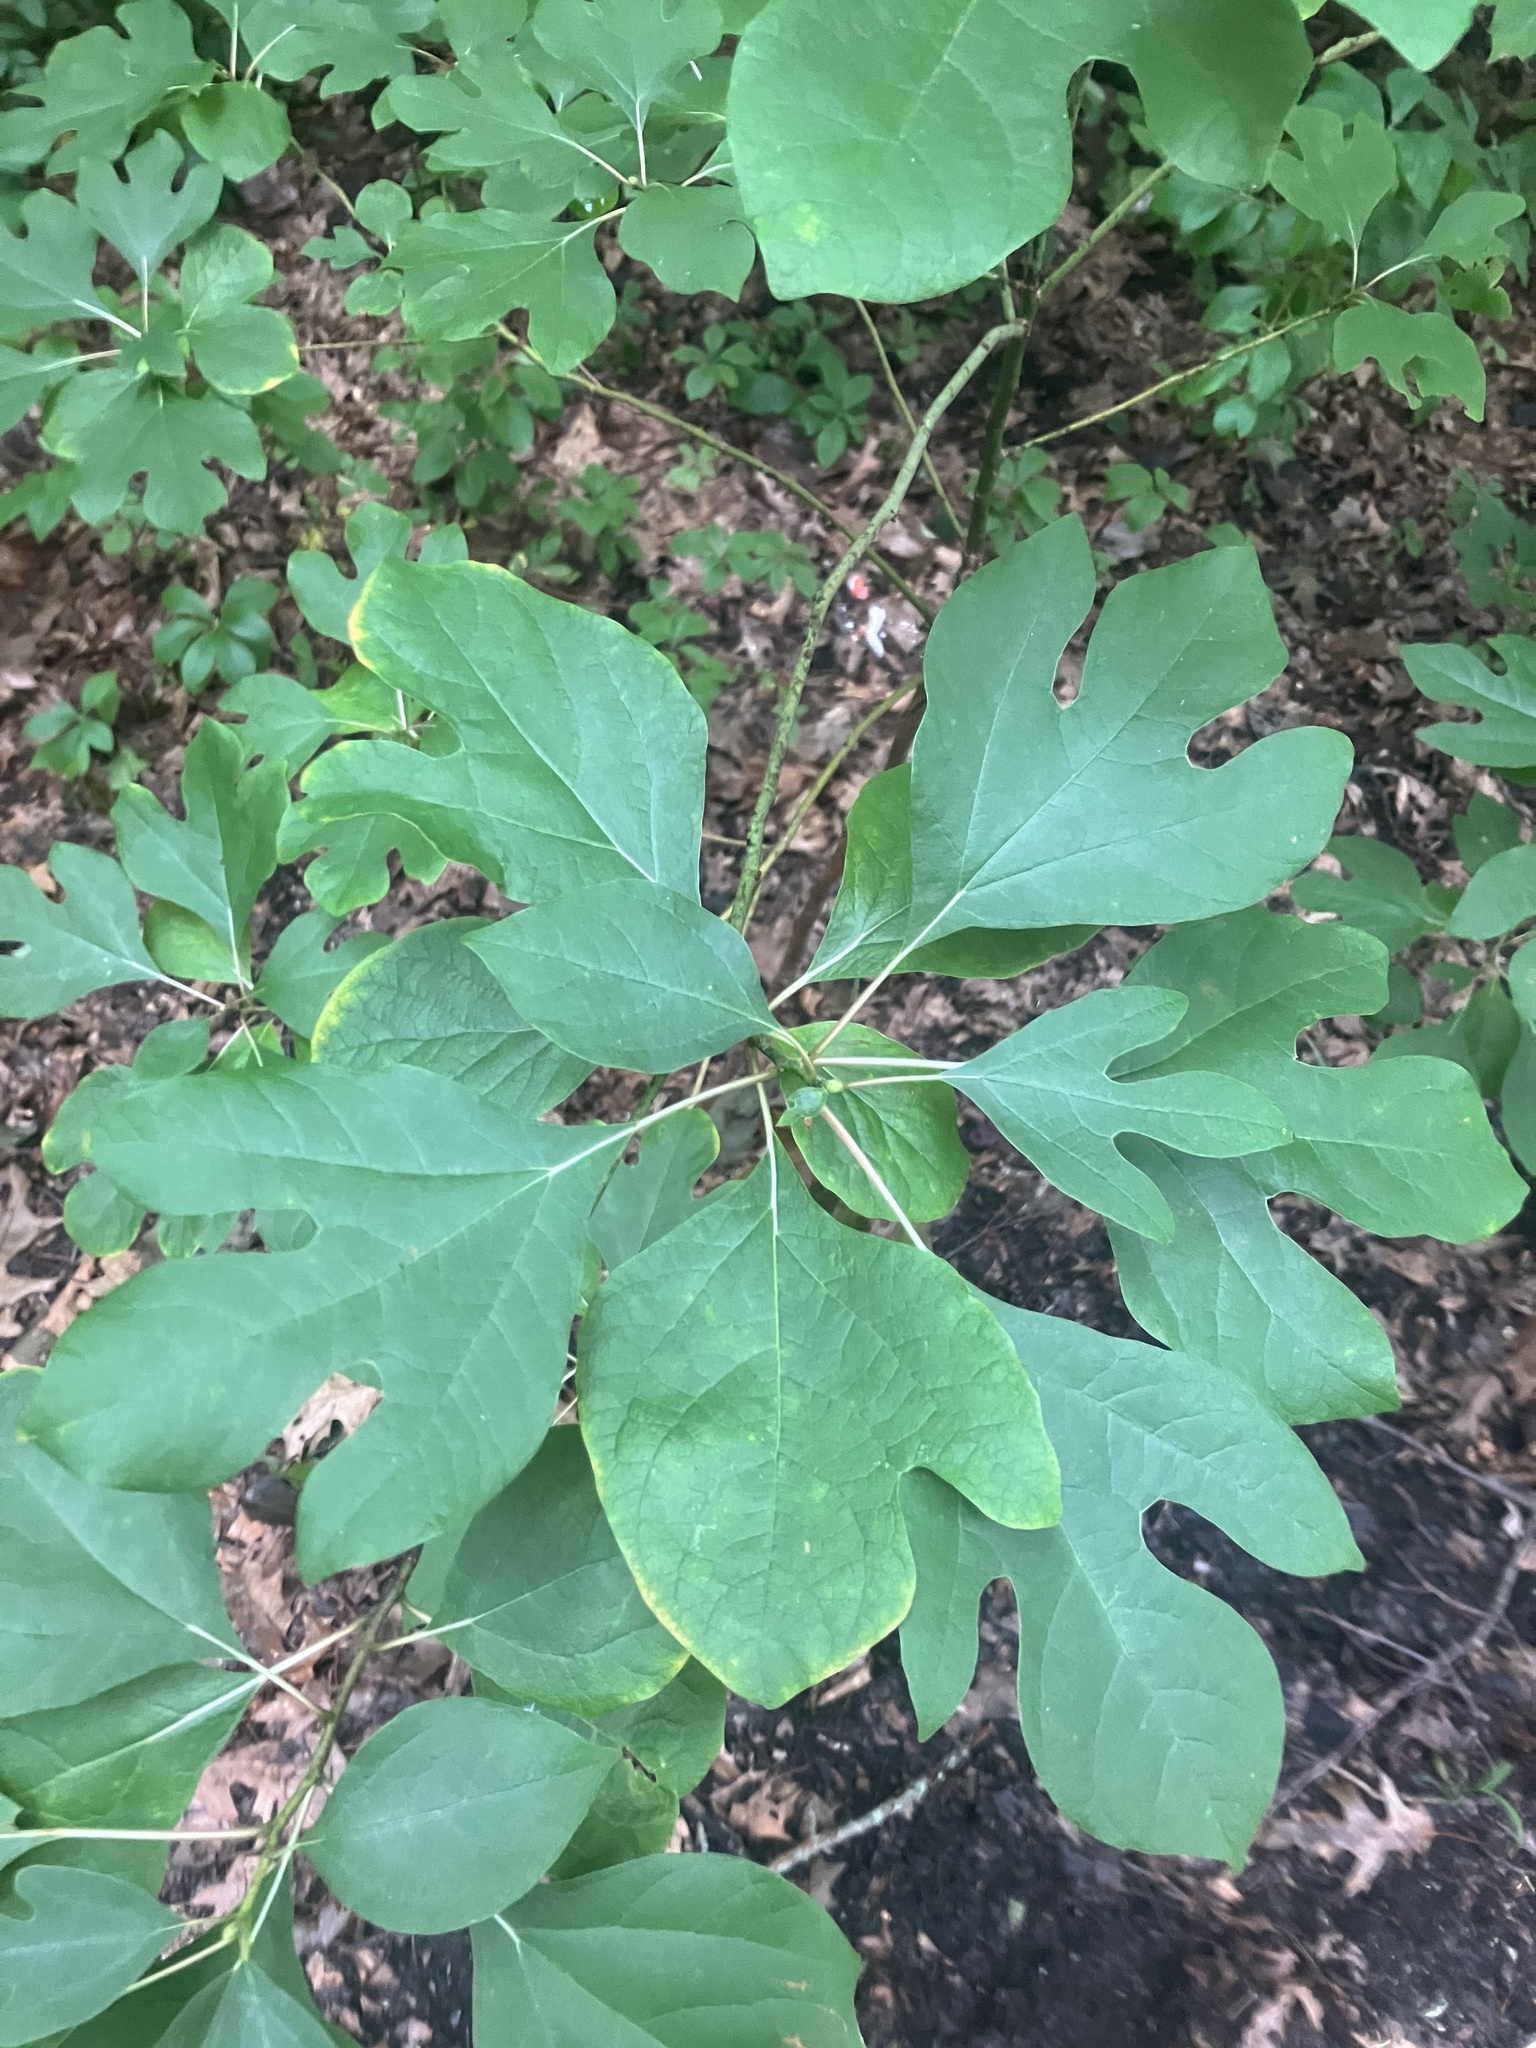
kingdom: Plantae
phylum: Tracheophyta
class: Magnoliopsida
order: Laurales
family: Lauraceae
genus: Sassafras
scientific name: Sassafras albidum
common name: Sassafras
